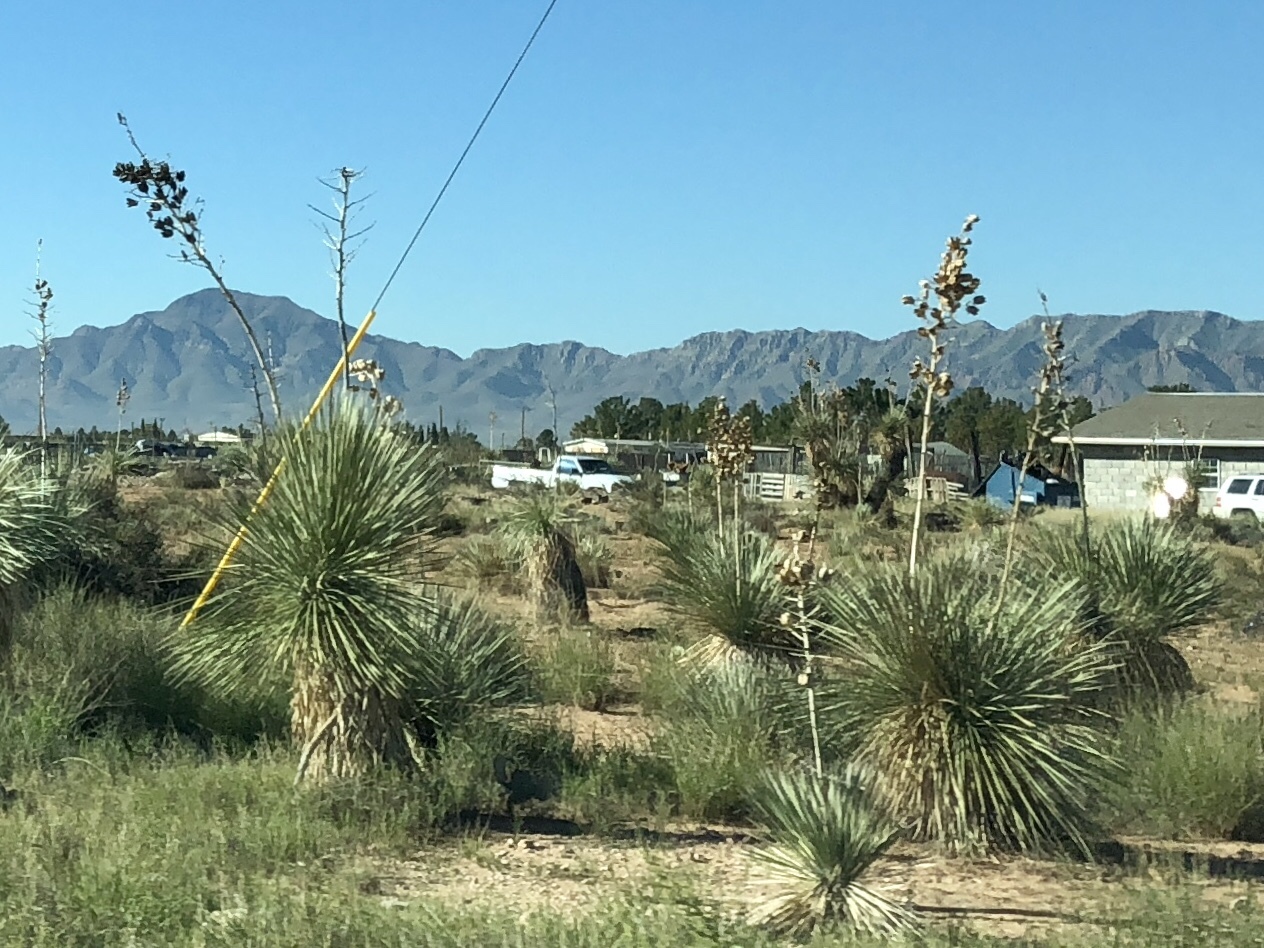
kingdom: Plantae
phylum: Tracheophyta
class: Liliopsida
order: Asparagales
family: Asparagaceae
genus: Yucca
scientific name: Yucca elata
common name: Palmella
